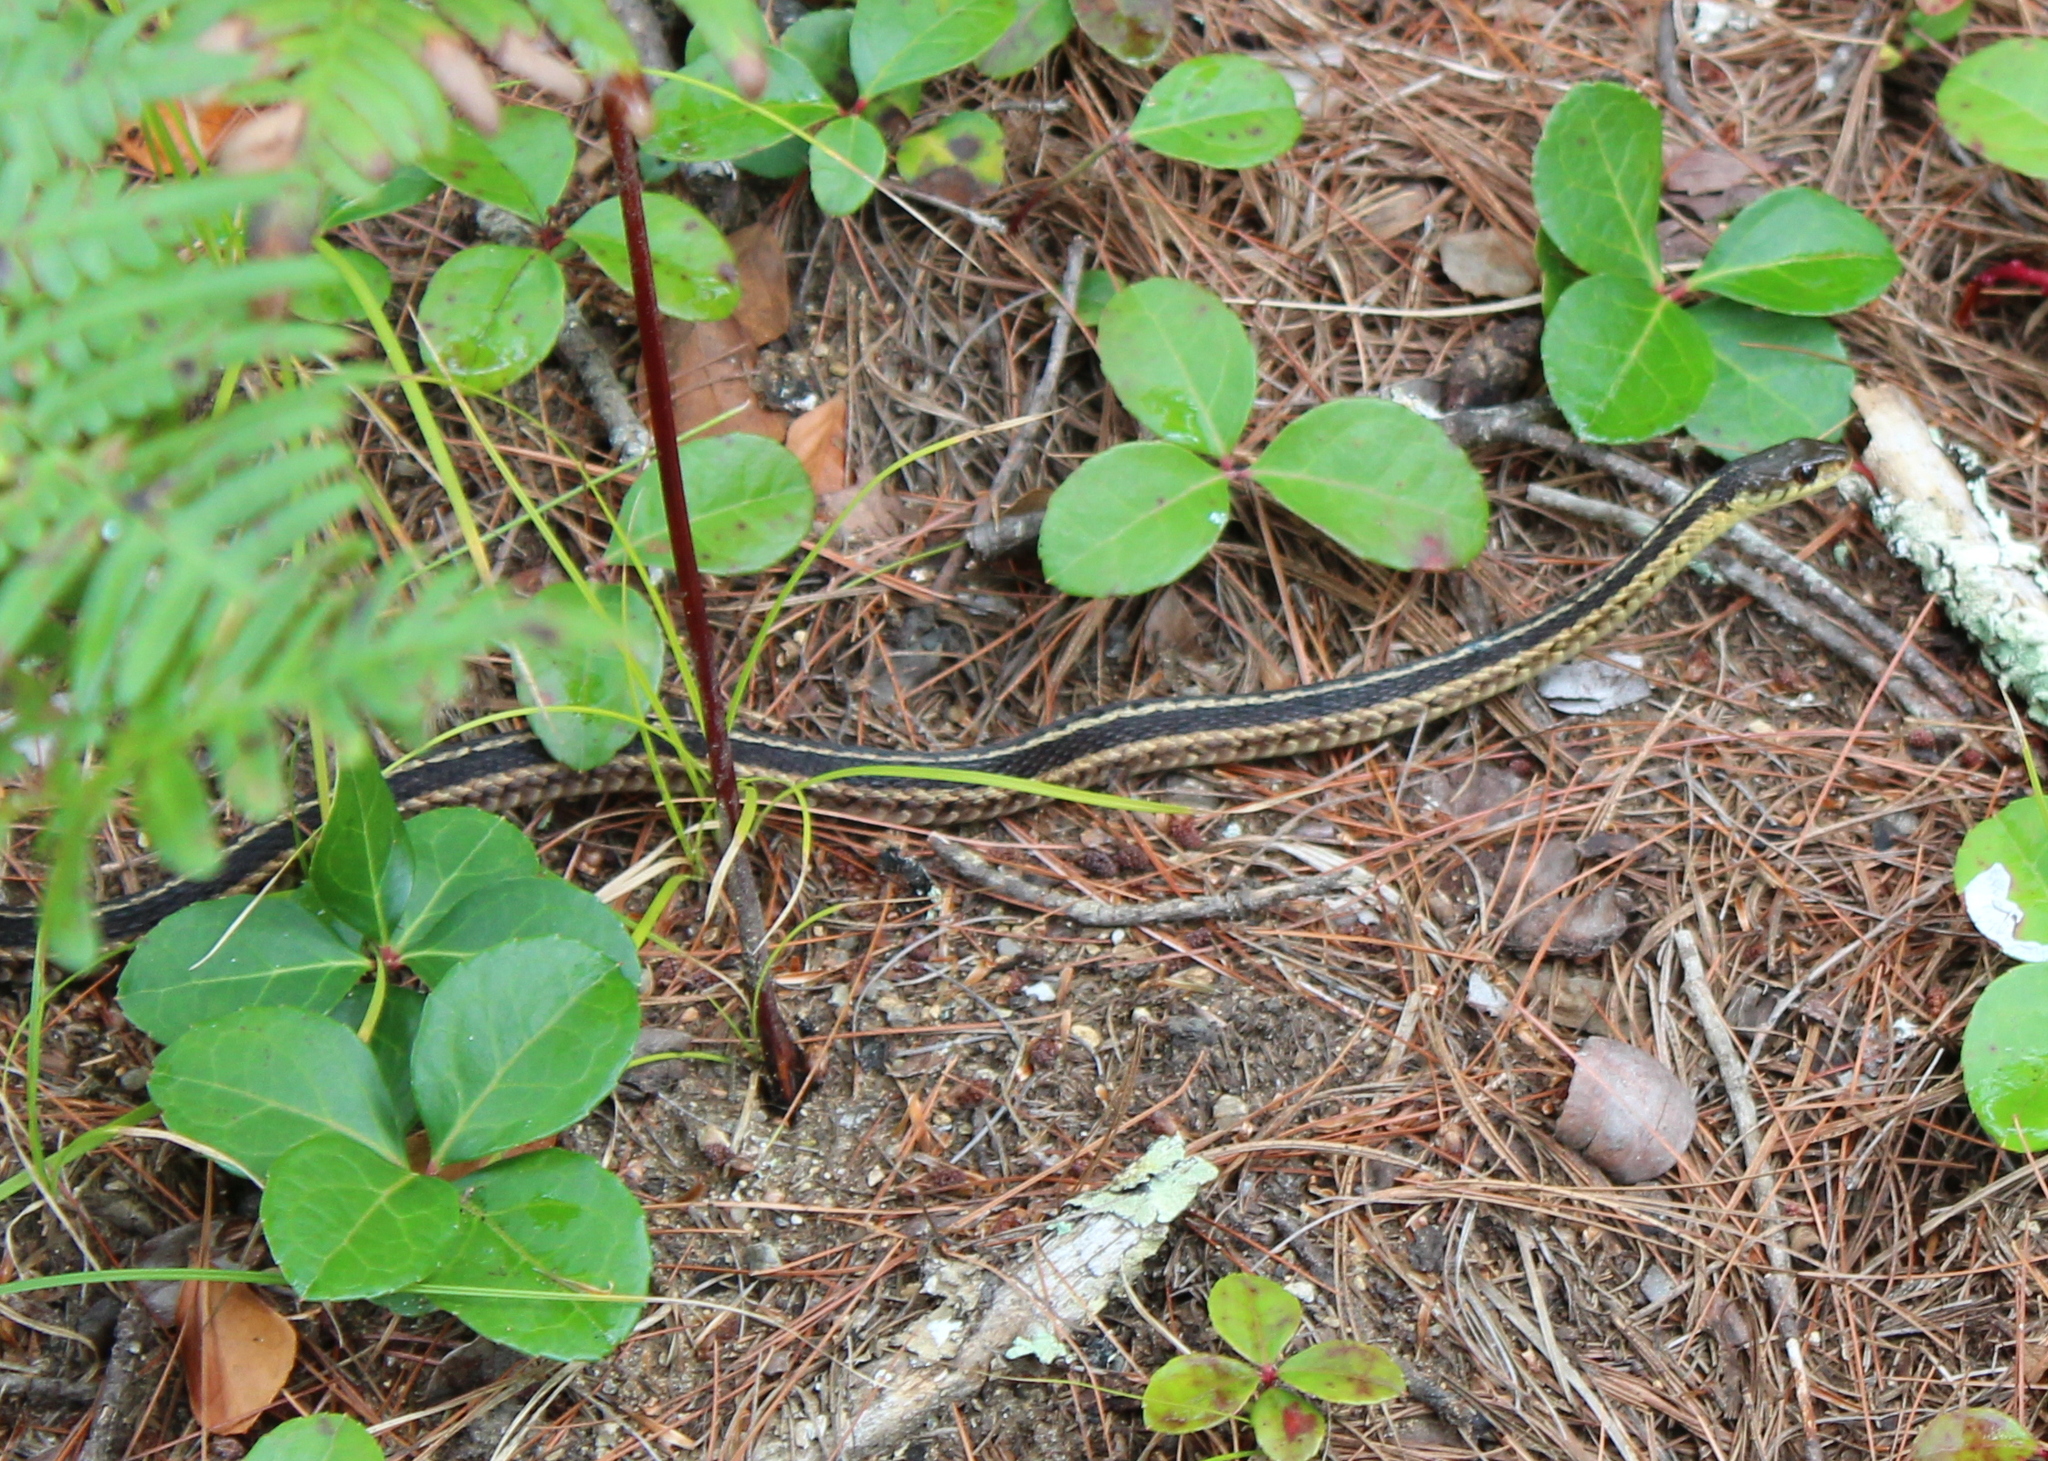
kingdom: Animalia
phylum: Chordata
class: Squamata
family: Colubridae
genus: Thamnophis
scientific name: Thamnophis sirtalis
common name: Common garter snake
